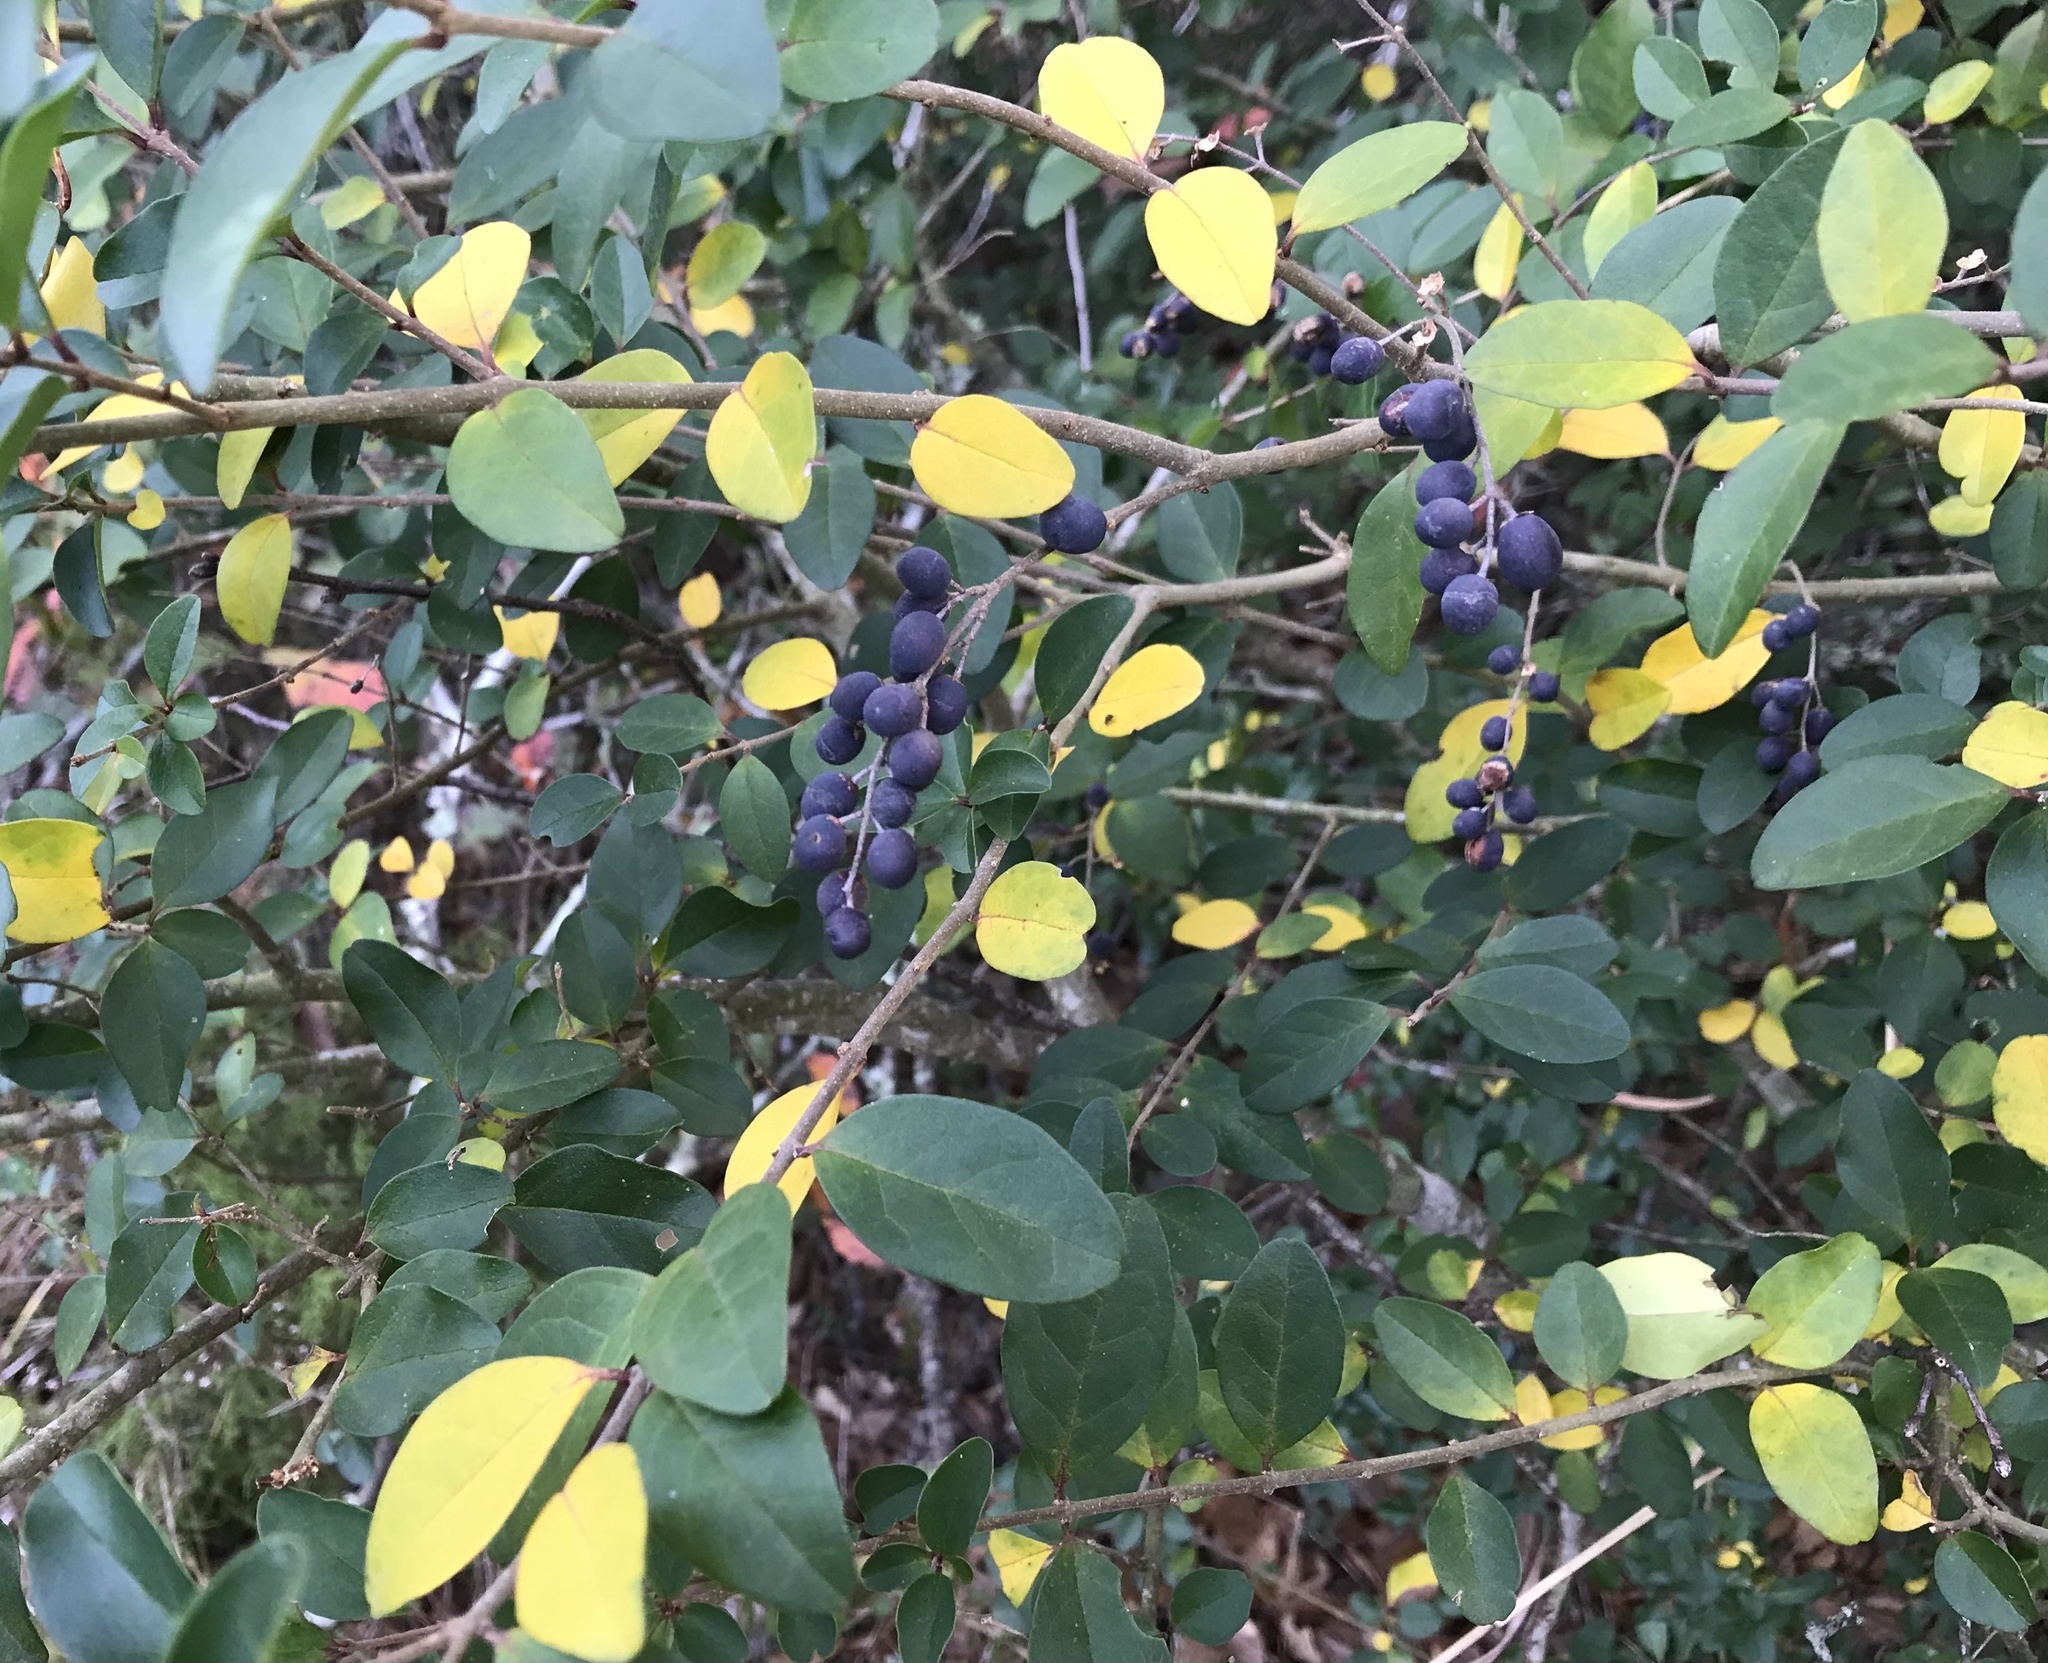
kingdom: Plantae
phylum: Tracheophyta
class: Magnoliopsida
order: Lamiales
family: Oleaceae
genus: Ligustrum
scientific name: Ligustrum sinense
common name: Chinese privet
